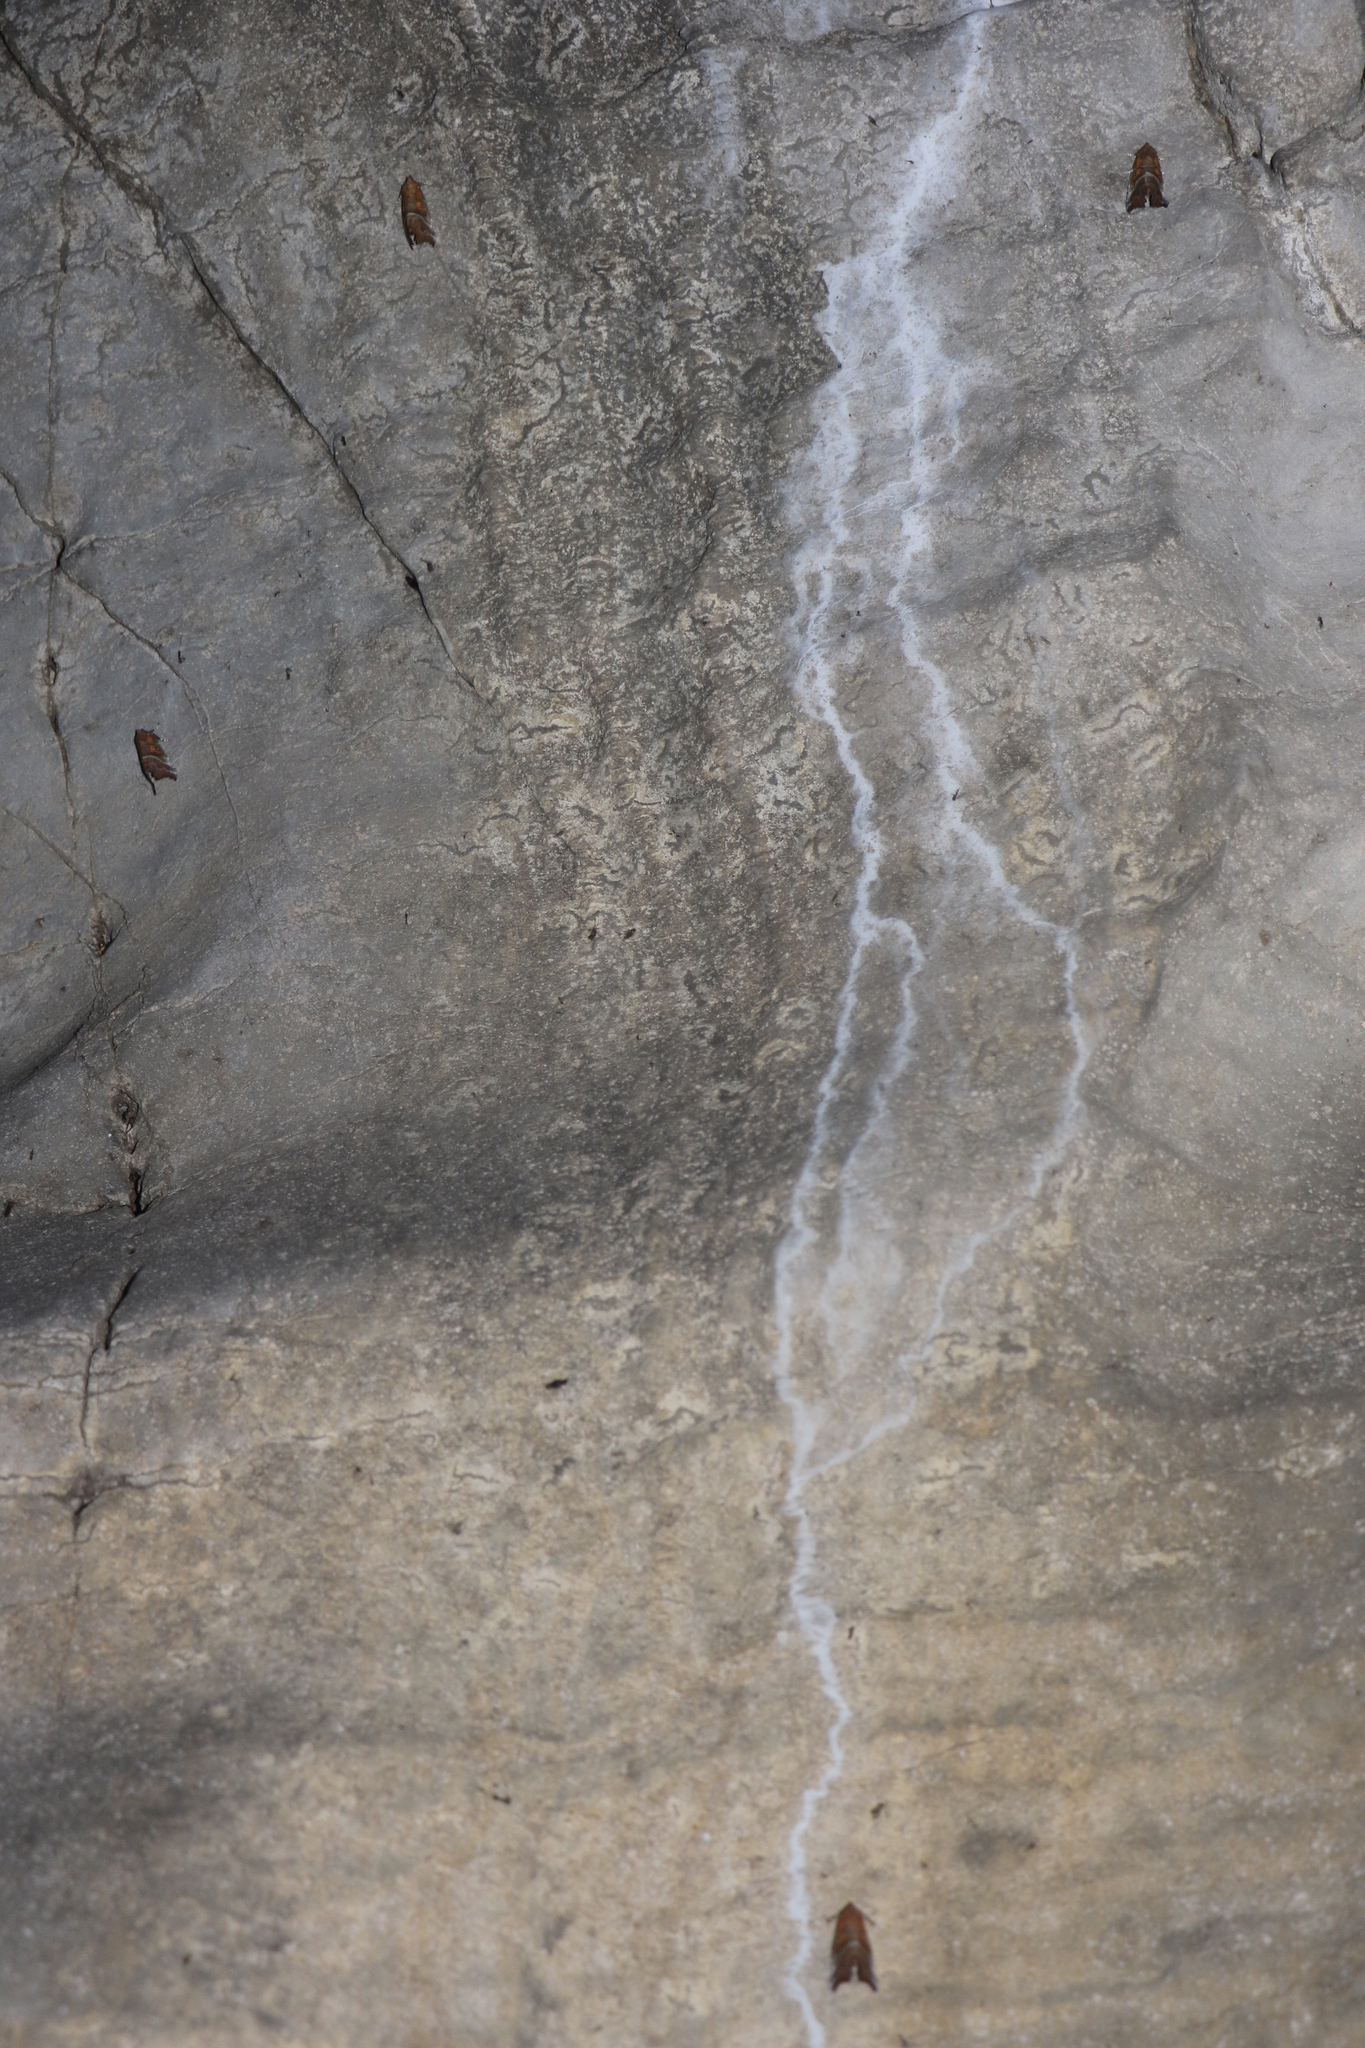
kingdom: Animalia
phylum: Arthropoda
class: Insecta
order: Lepidoptera
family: Erebidae
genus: Scoliopteryx
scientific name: Scoliopteryx libatrix
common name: Herald
